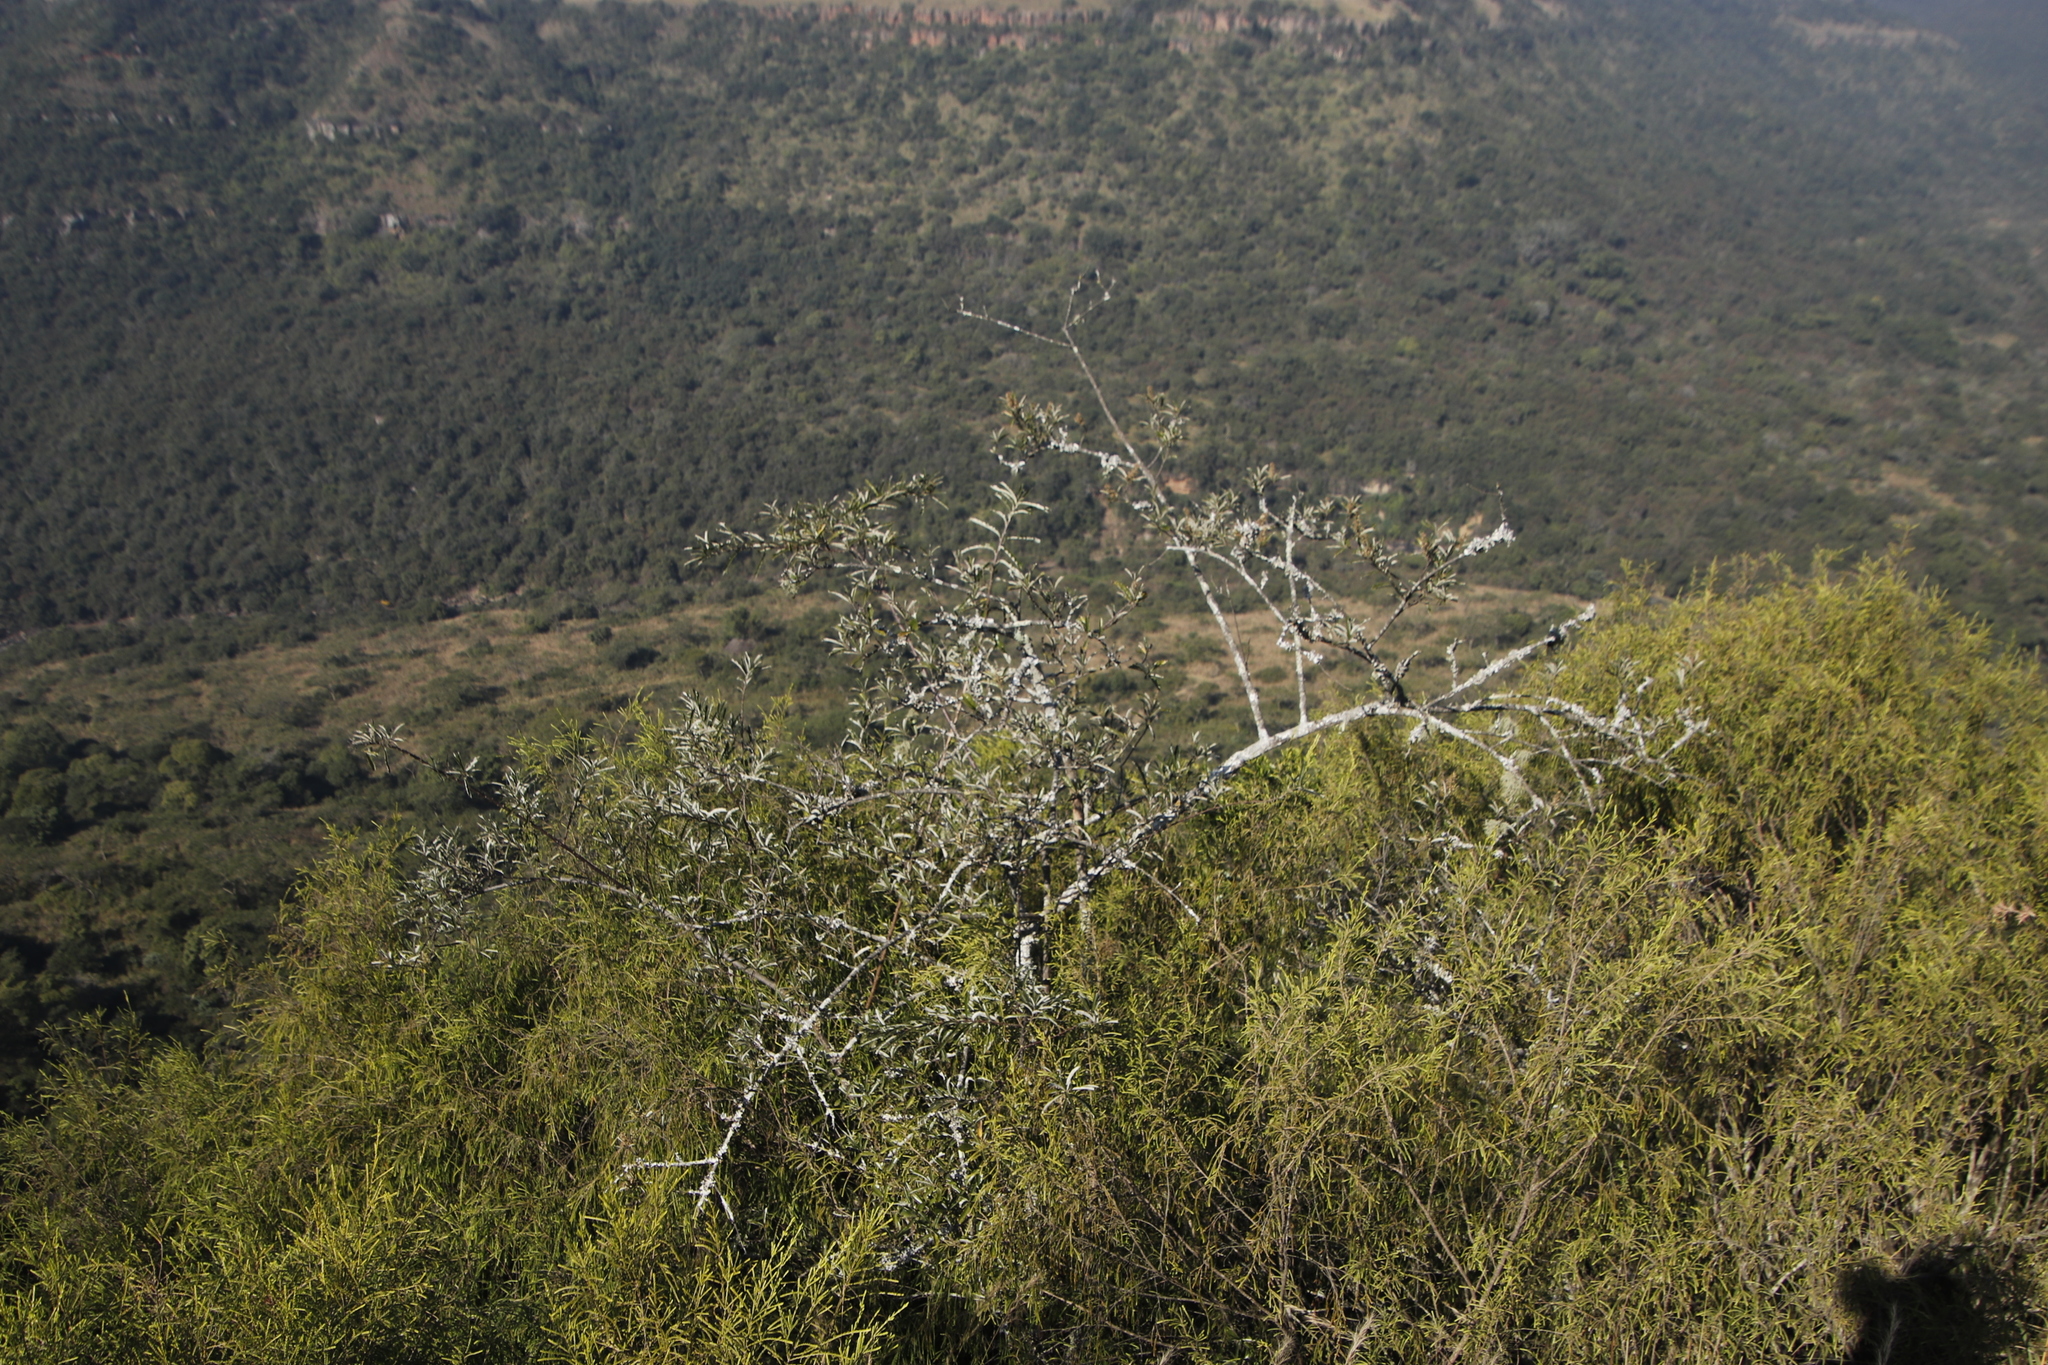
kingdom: Plantae
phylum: Tracheophyta
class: Magnoliopsida
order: Asterales
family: Asteraceae
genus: Brachylaena
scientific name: Brachylaena elliptica
